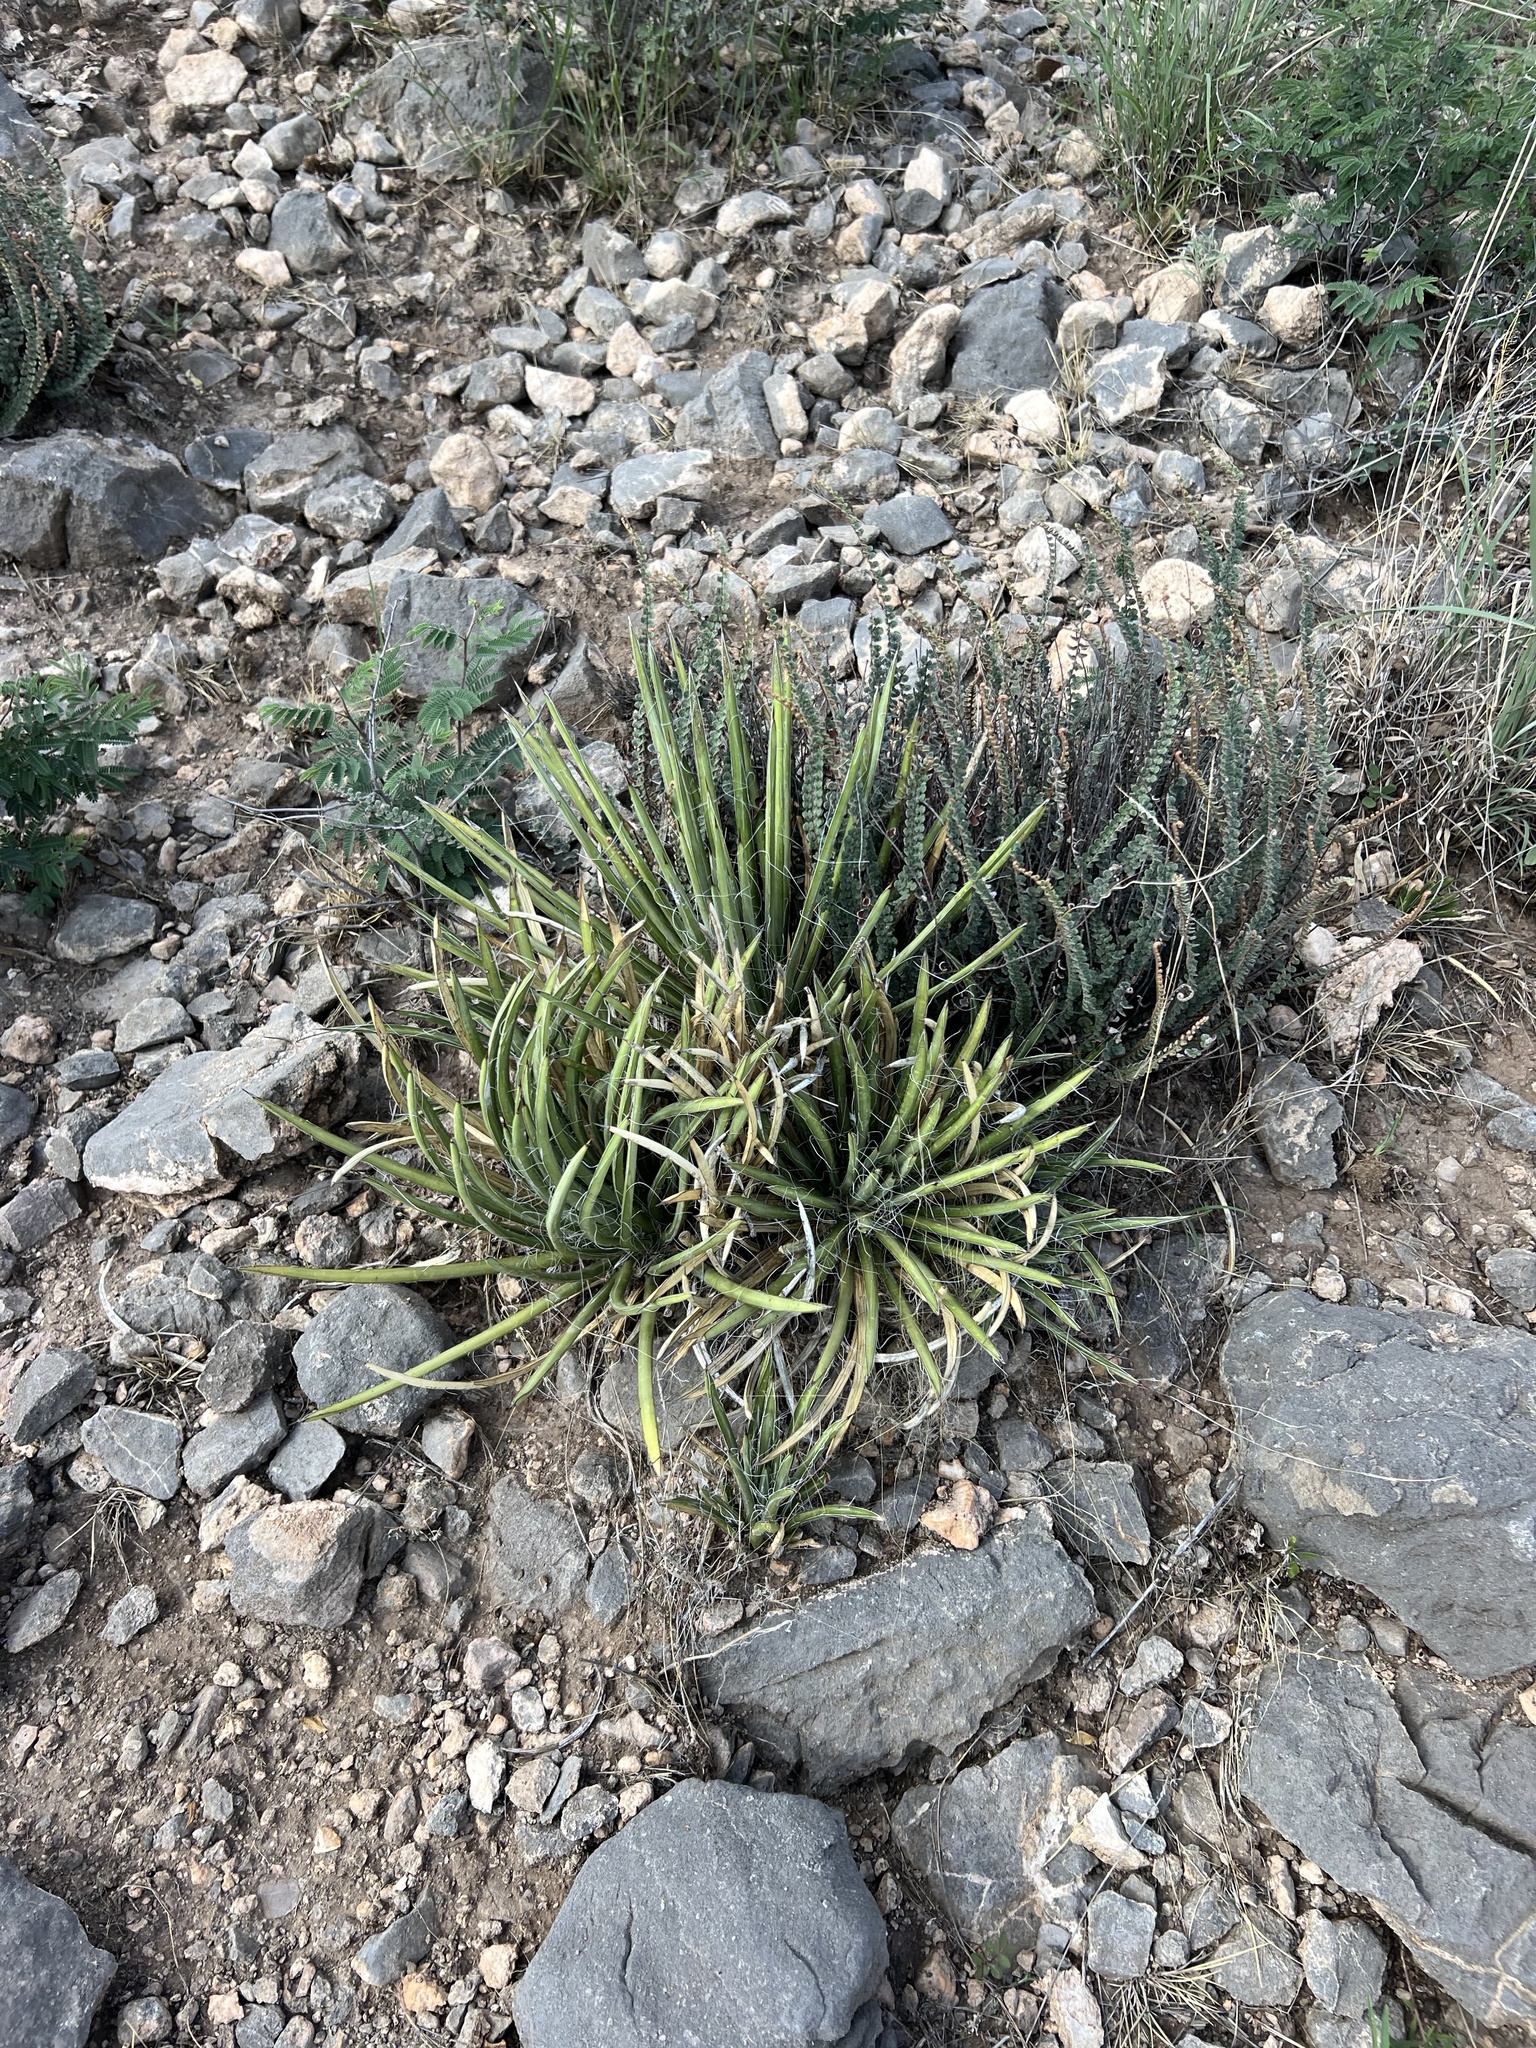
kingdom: Plantae
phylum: Tracheophyta
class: Liliopsida
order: Asparagales
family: Asparagaceae
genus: Agave
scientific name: Agave schottii
